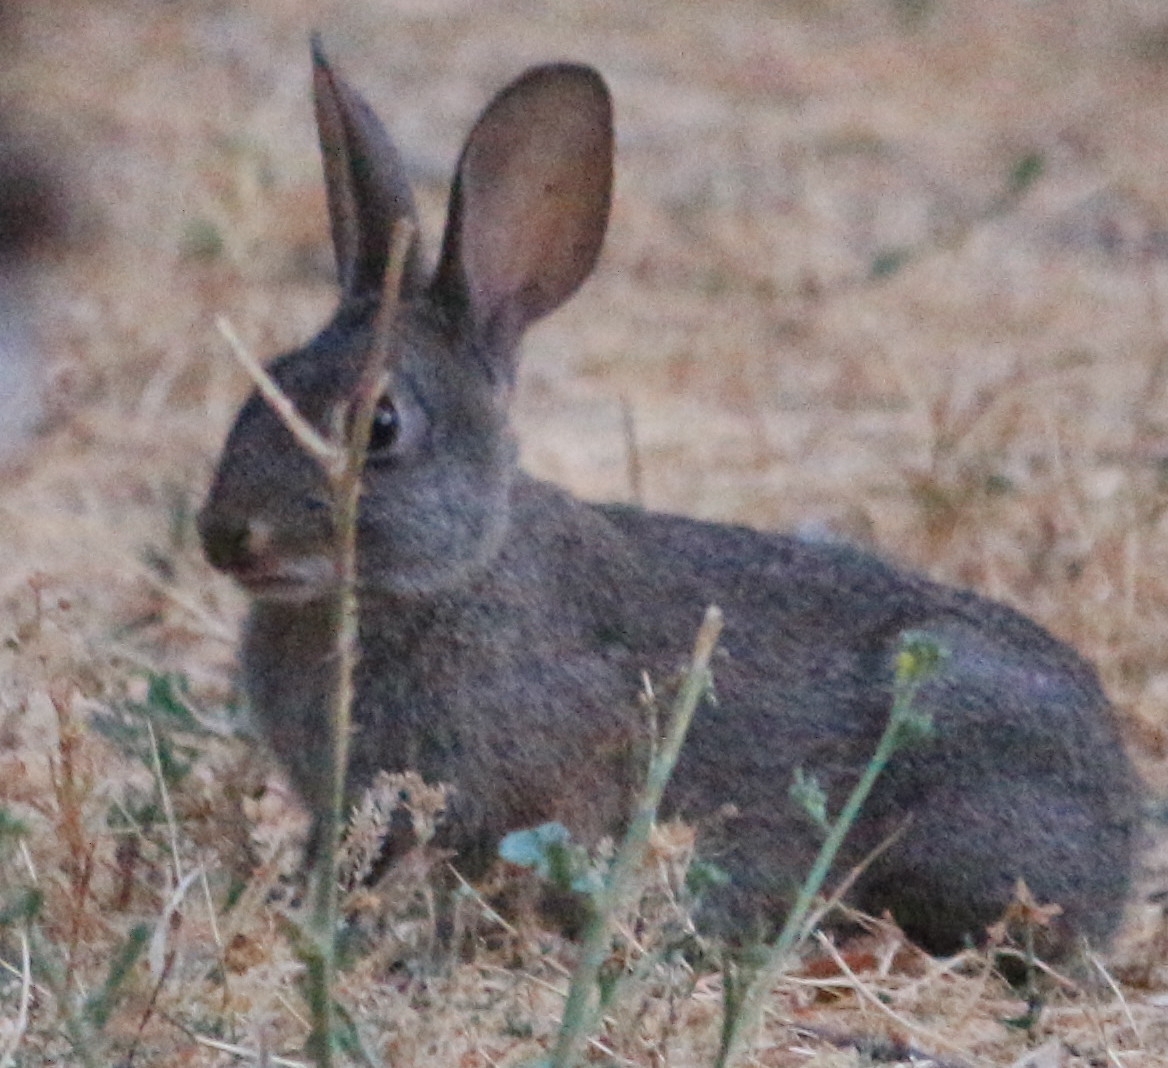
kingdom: Animalia
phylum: Chordata
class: Mammalia
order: Lagomorpha
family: Leporidae
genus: Sylvilagus
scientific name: Sylvilagus bachmani
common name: Brush rabbit
